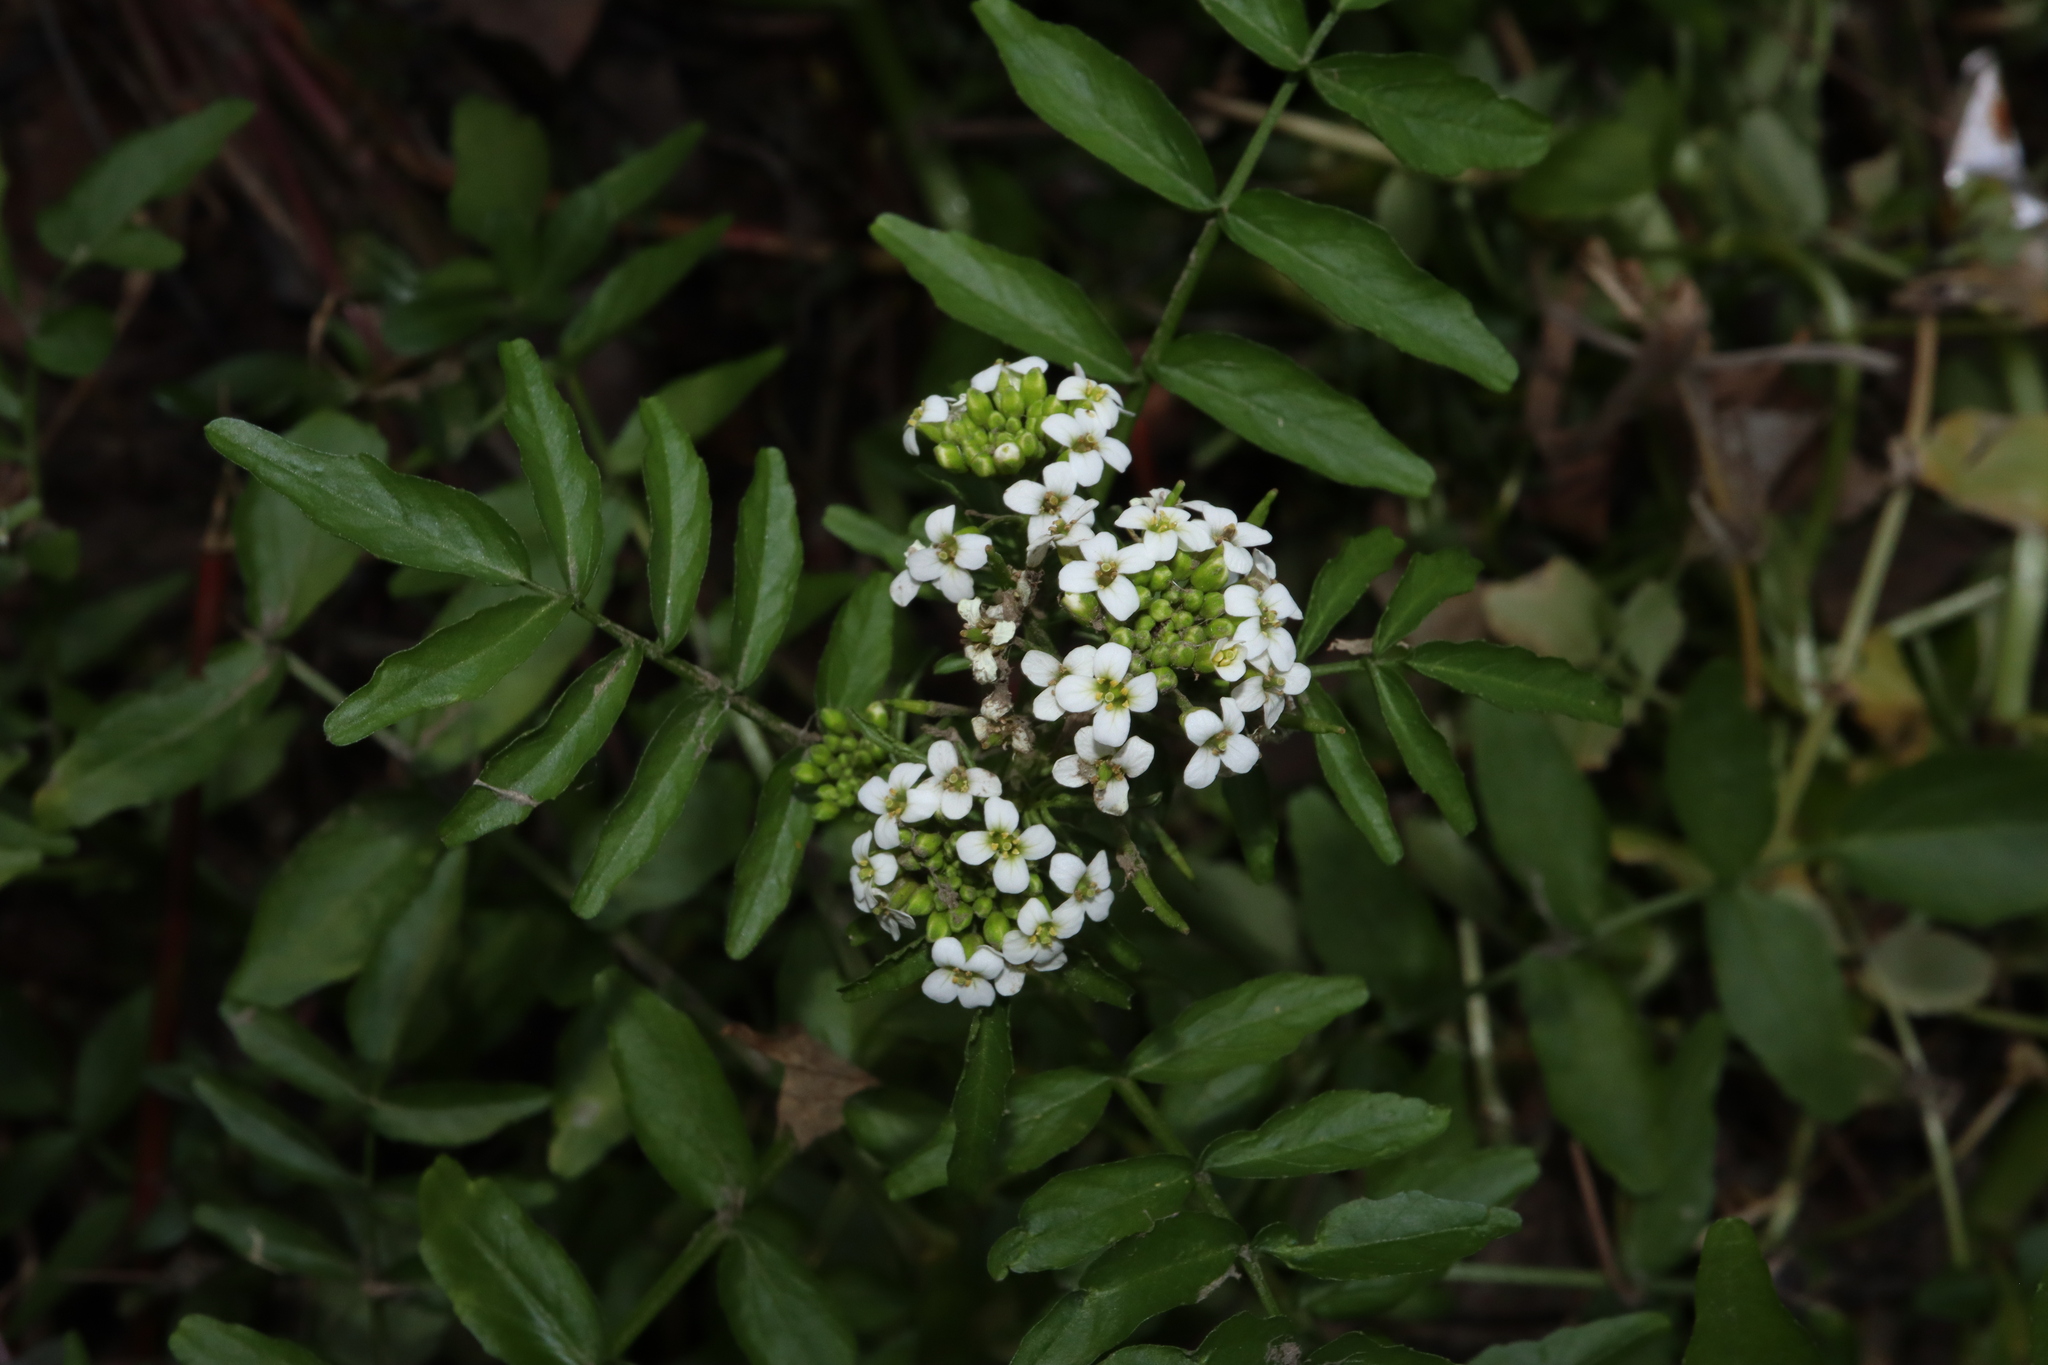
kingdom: Plantae
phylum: Tracheophyta
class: Magnoliopsida
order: Brassicales
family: Brassicaceae
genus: Nasturtium
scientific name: Nasturtium officinale
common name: Watercress
